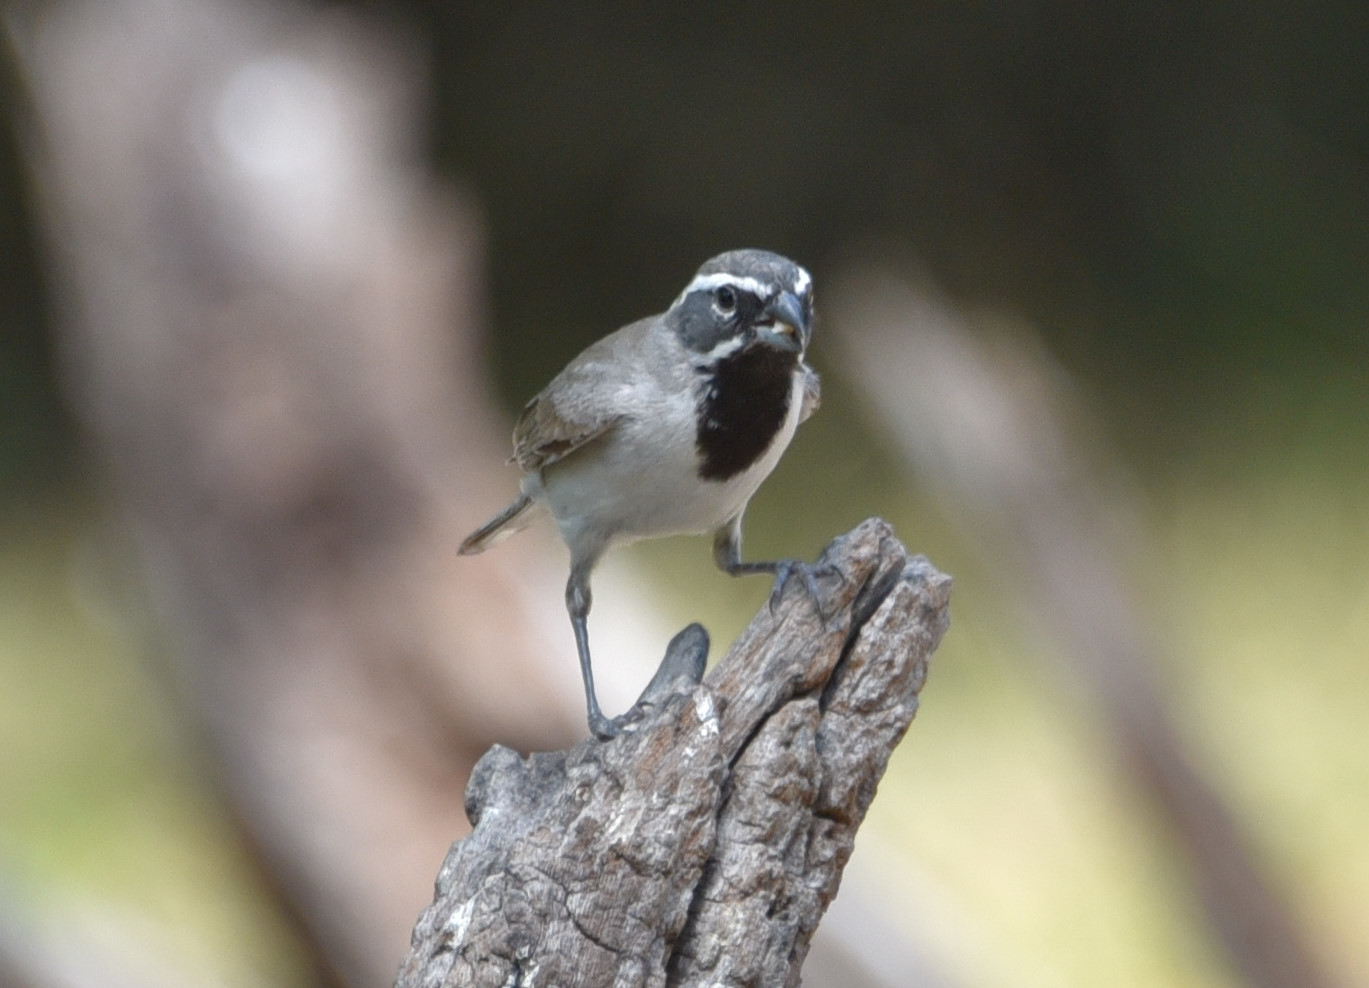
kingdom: Animalia
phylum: Chordata
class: Aves
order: Passeriformes
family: Passerellidae
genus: Amphispiza
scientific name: Amphispiza bilineata
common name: Black-throated sparrow
